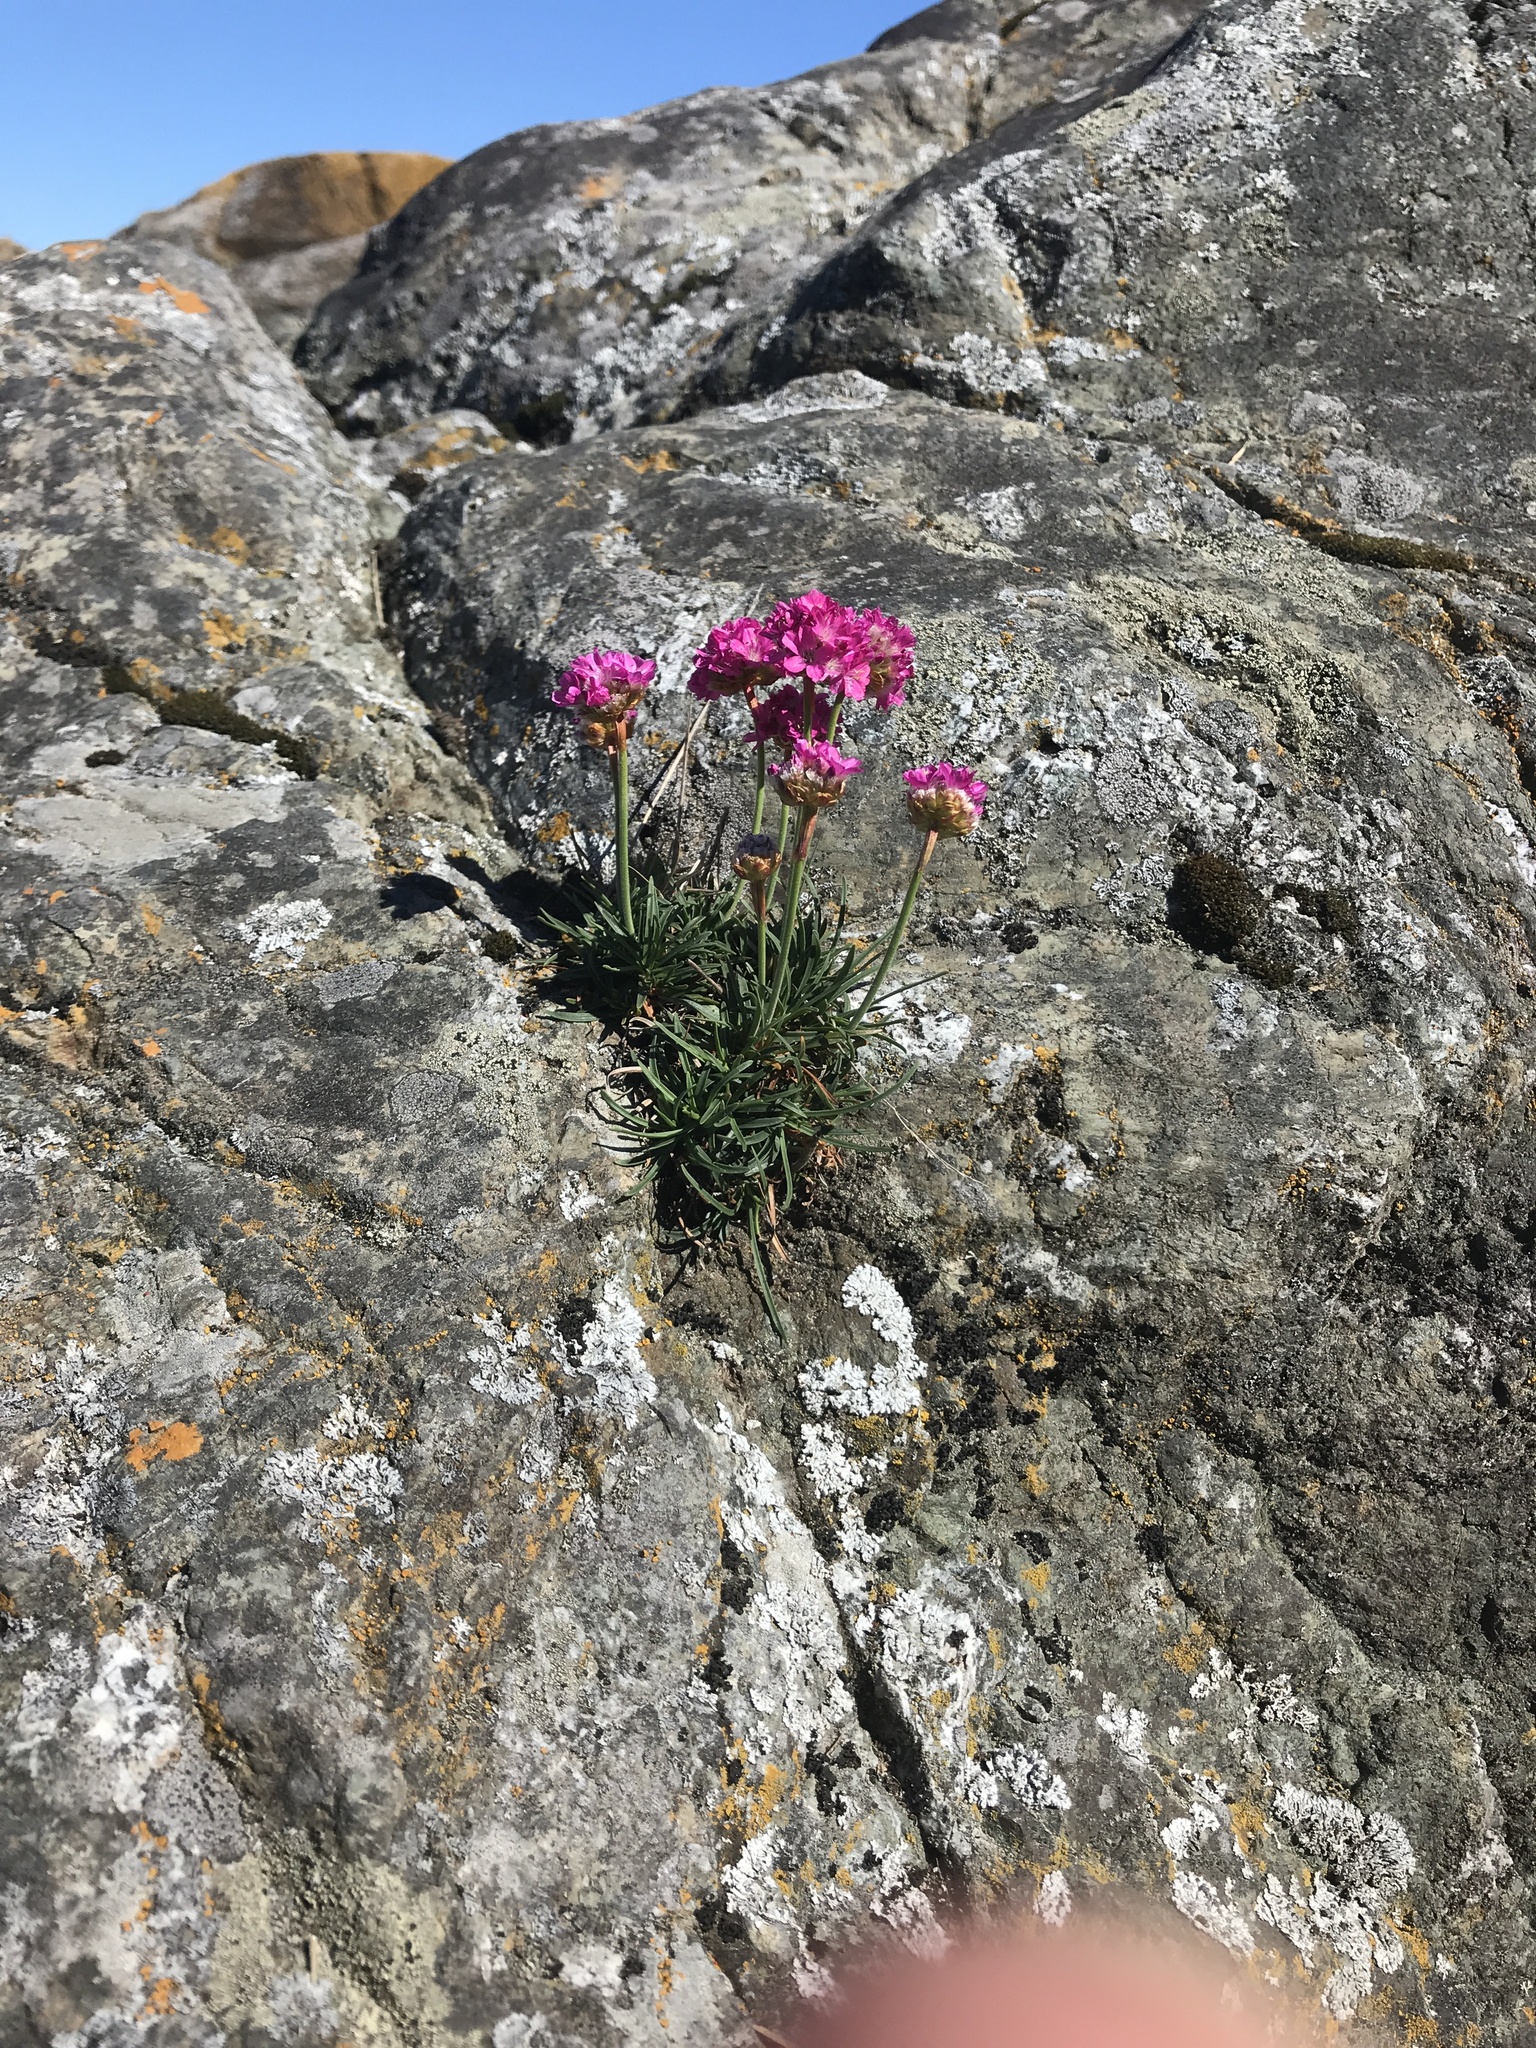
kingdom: Plantae
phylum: Tracheophyta
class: Magnoliopsida
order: Caryophyllales
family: Plumbaginaceae
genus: Armeria
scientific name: Armeria maritima
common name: Thrift
